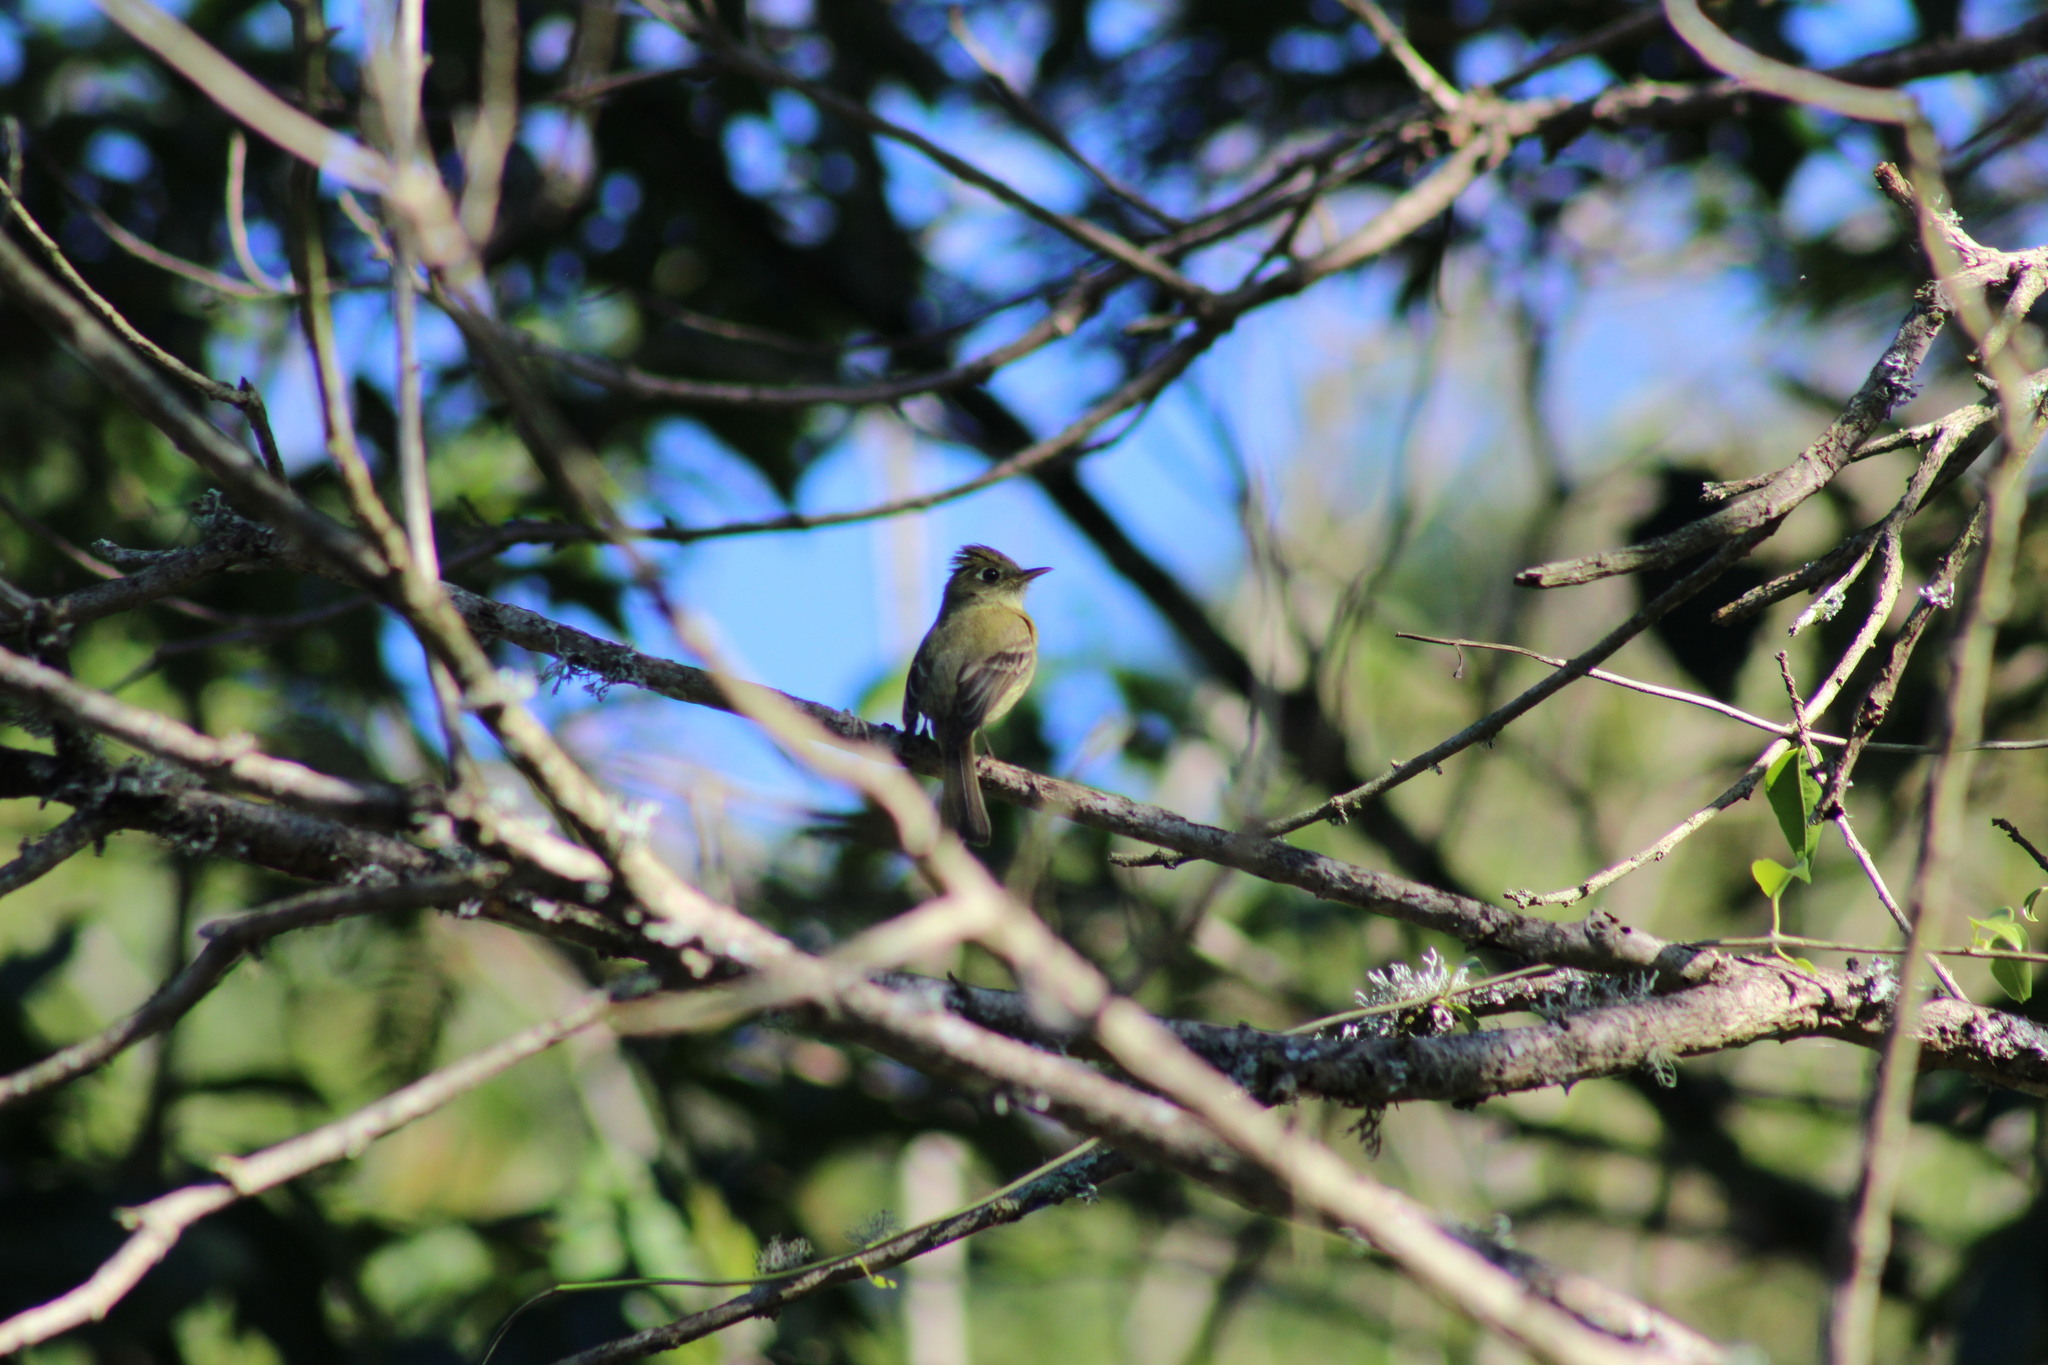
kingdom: Animalia
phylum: Chordata
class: Aves
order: Passeriformes
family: Tyrannidae
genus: Empidonax
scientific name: Empidonax difficilis
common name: Pacific-slope flycatcher
